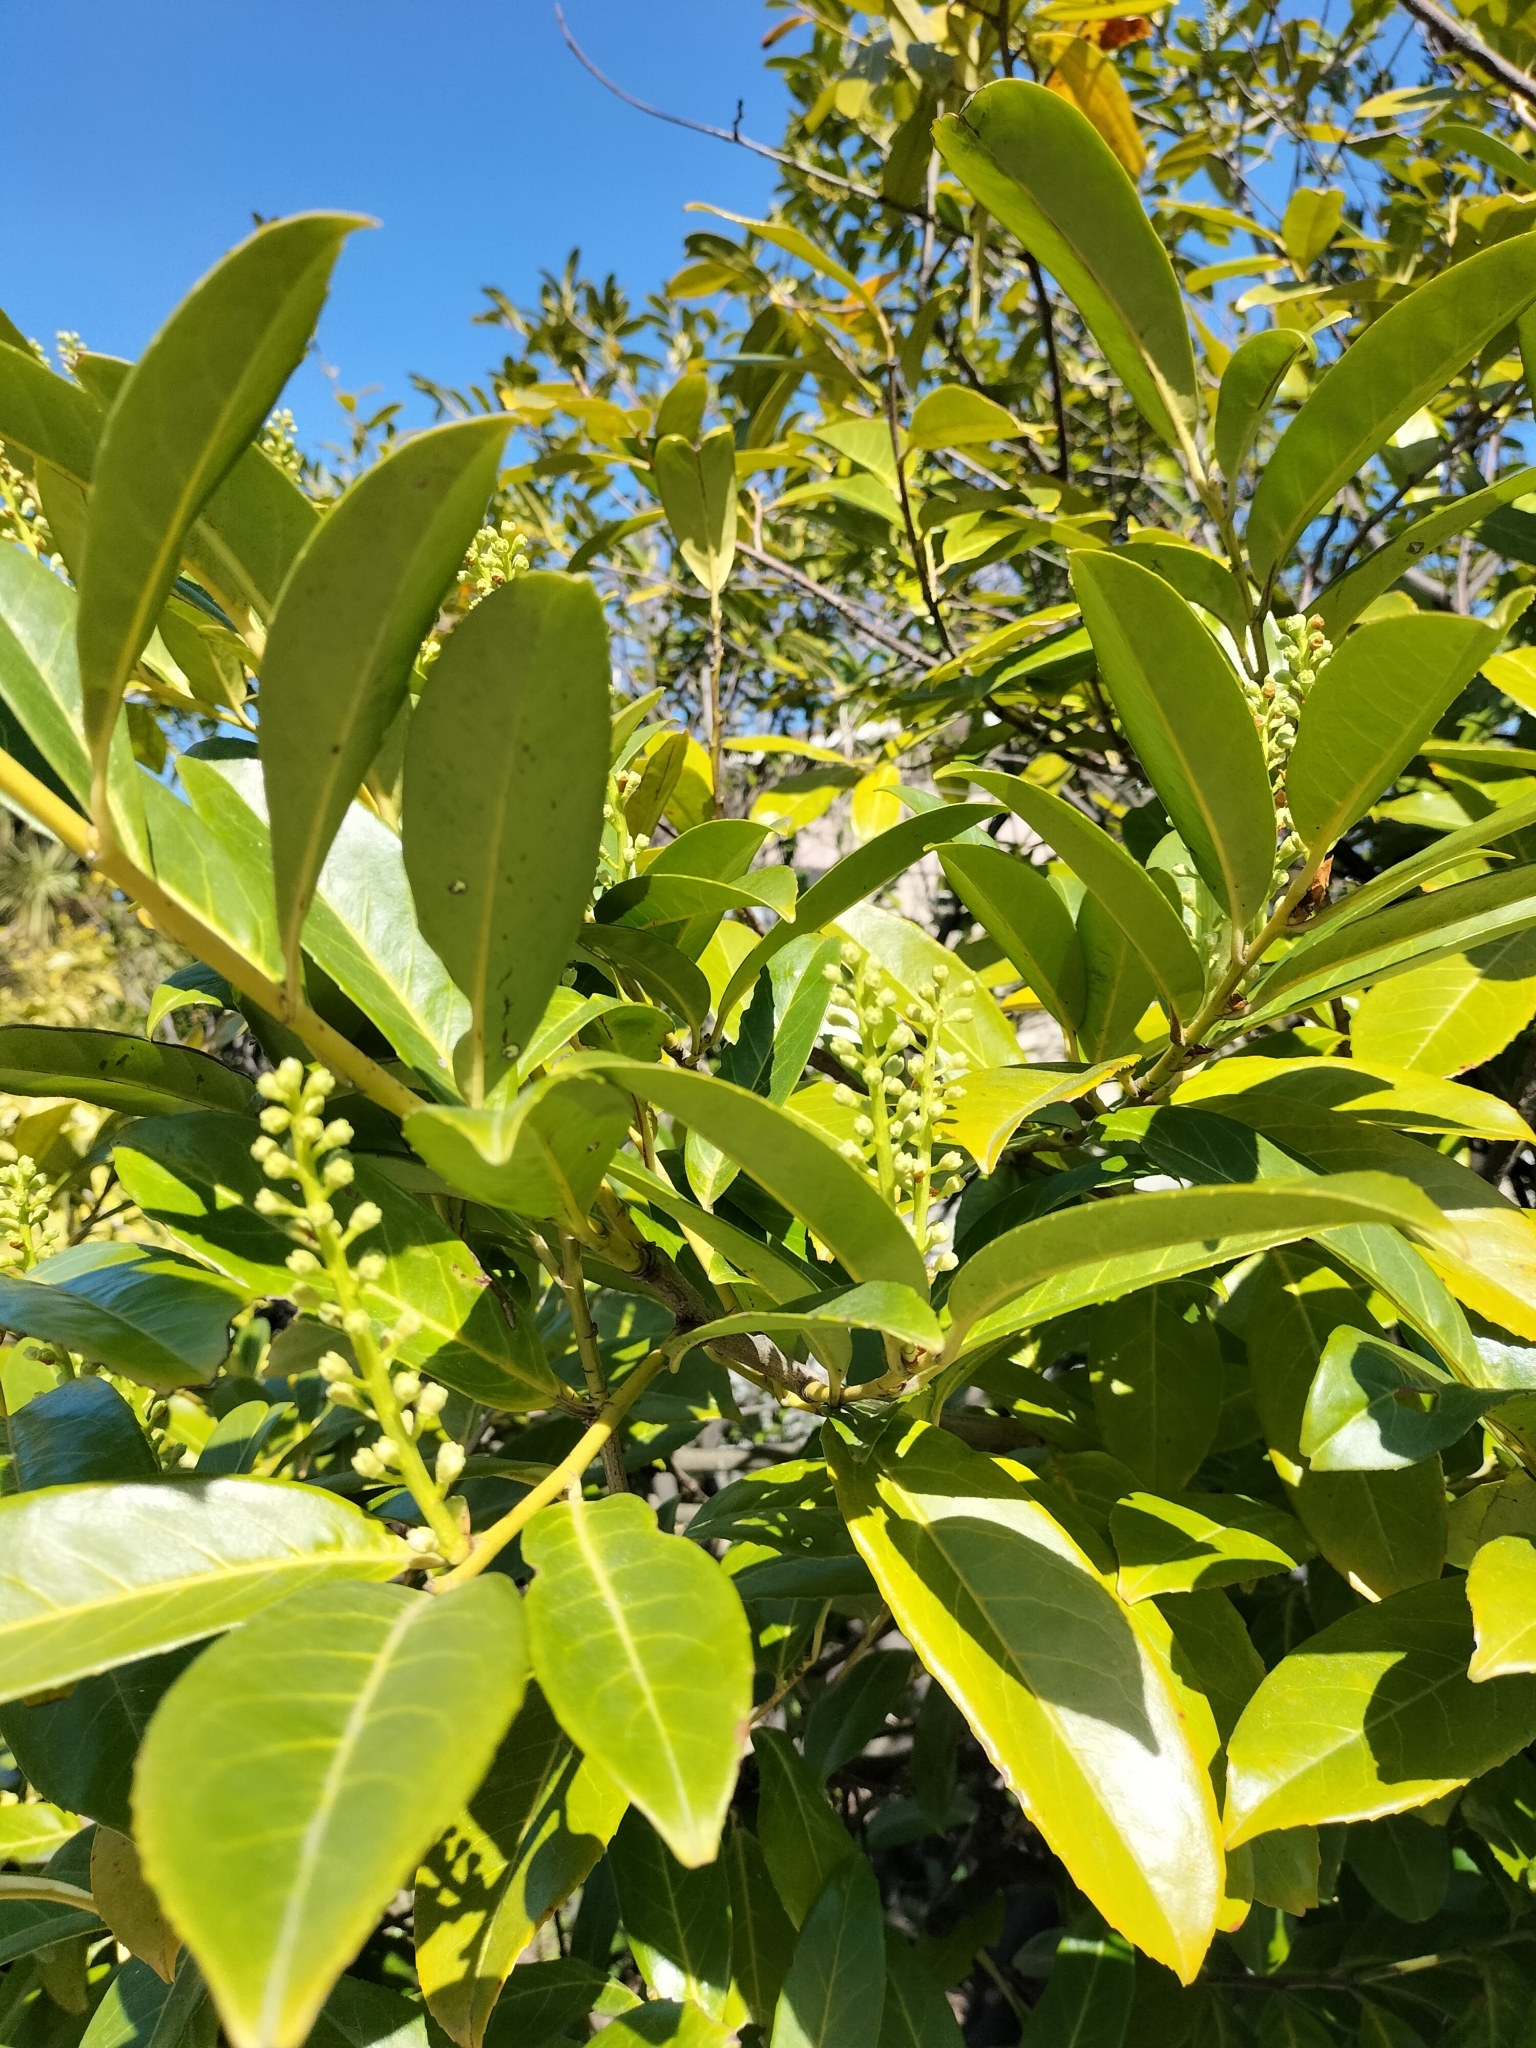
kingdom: Plantae
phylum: Tracheophyta
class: Magnoliopsida
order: Rosales
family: Rosaceae
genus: Prunus
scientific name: Prunus laurocerasus
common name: Cherry laurel
